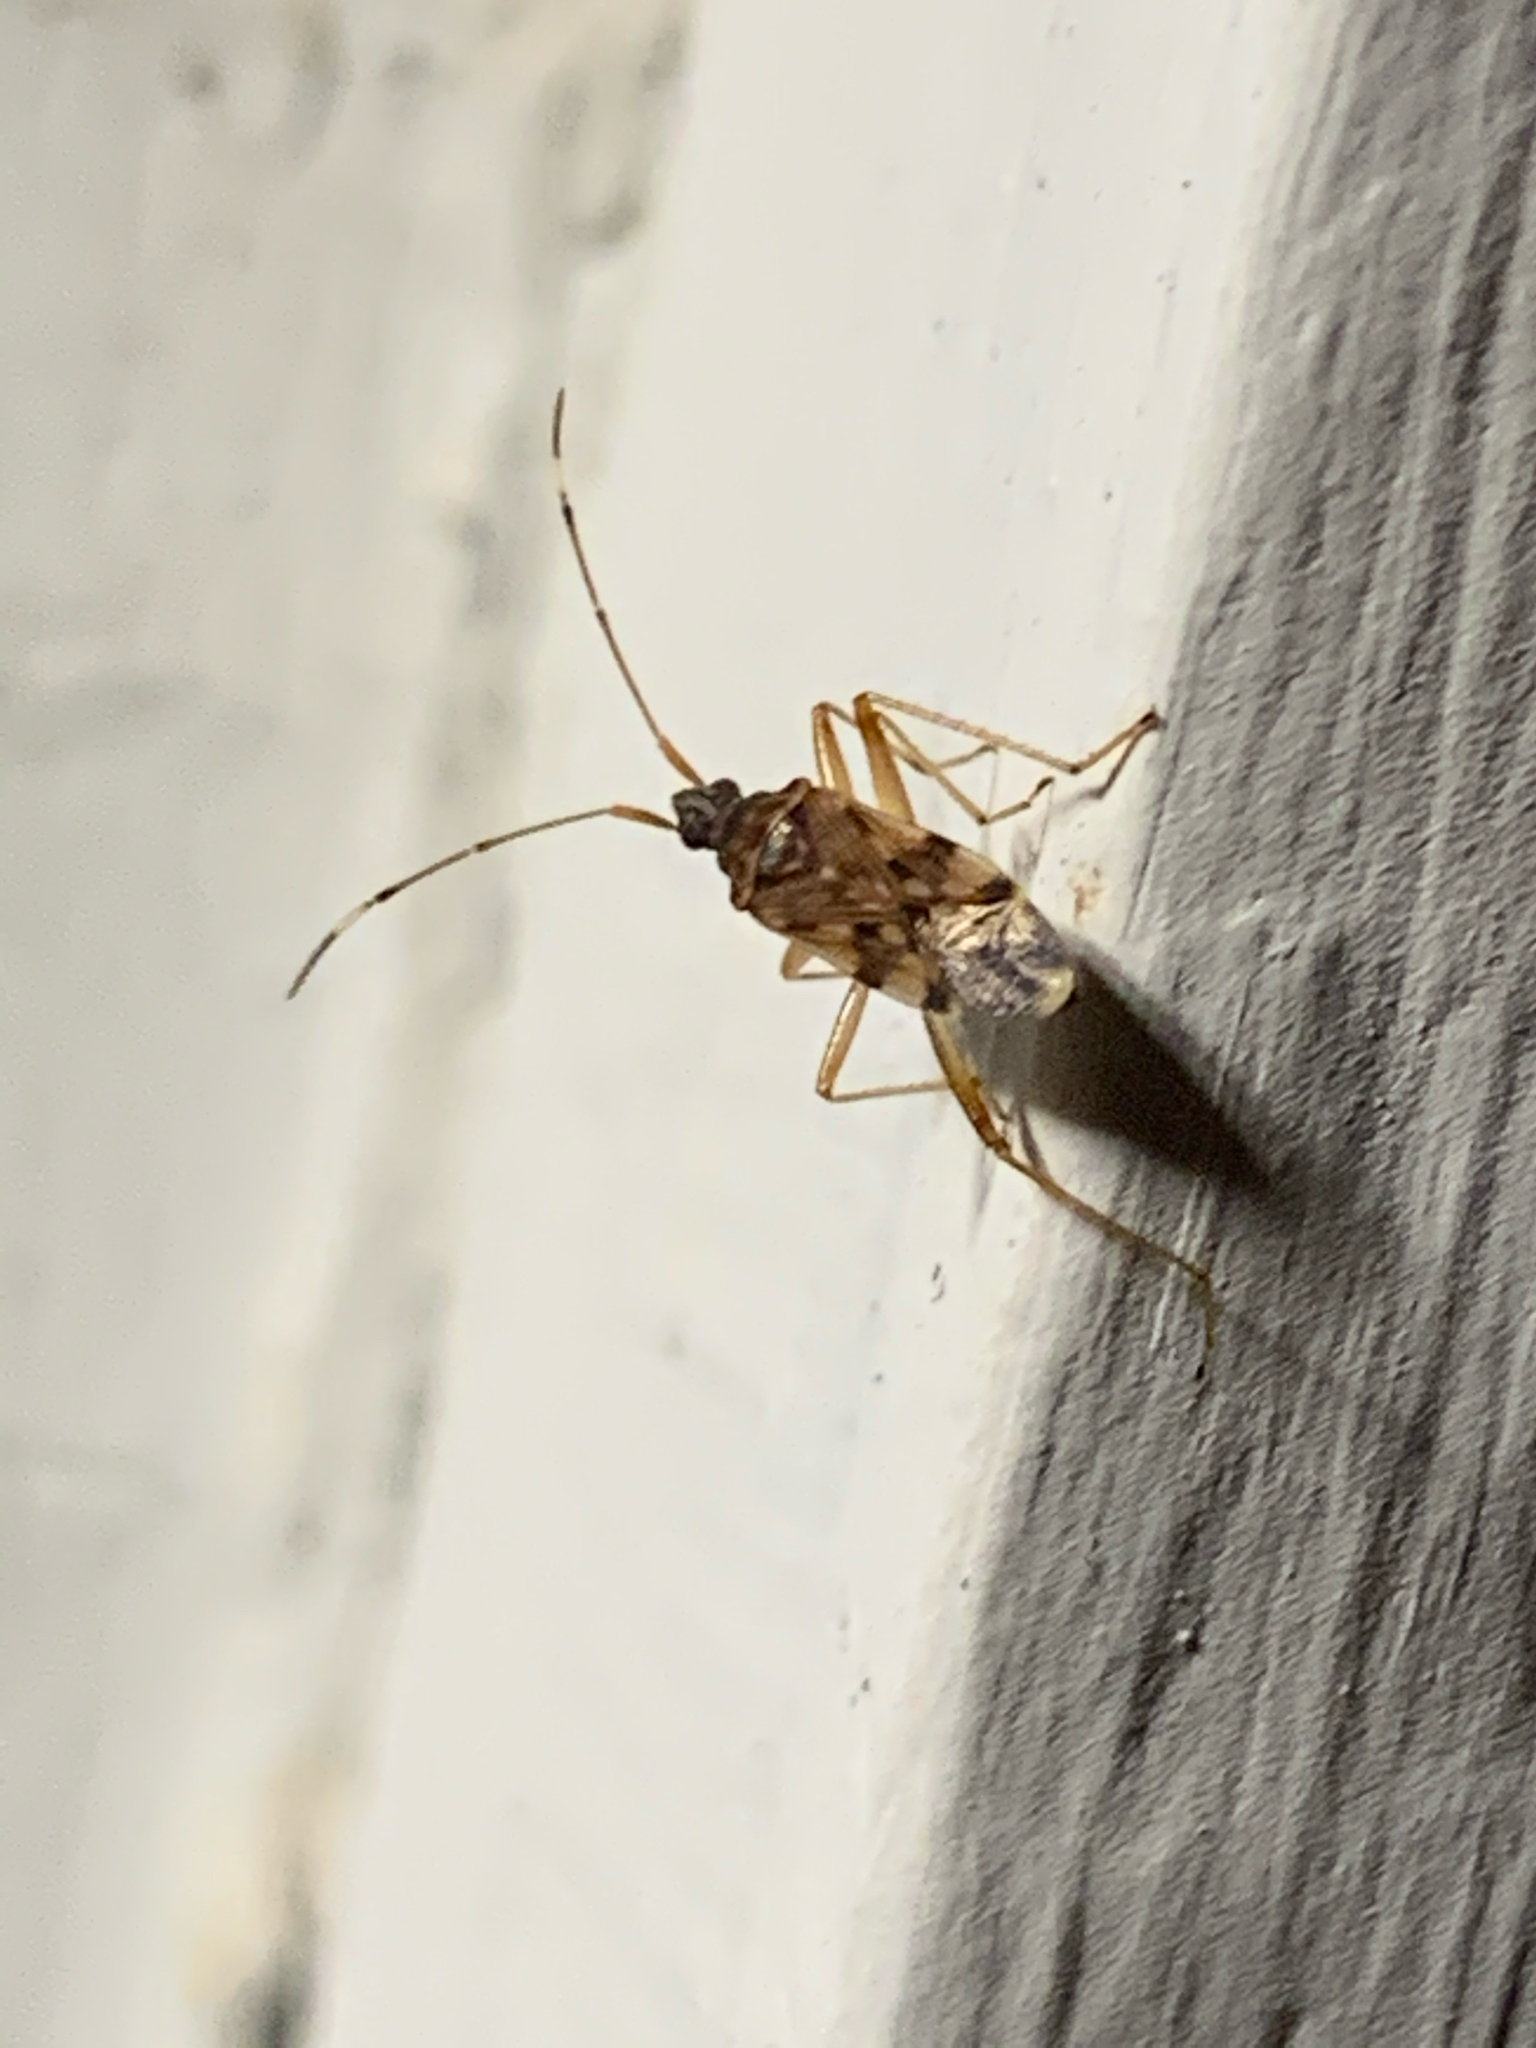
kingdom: Animalia
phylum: Arthropoda
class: Insecta
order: Hemiptera
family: Rhyparochromidae
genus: Ozophora
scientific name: Ozophora picturata
